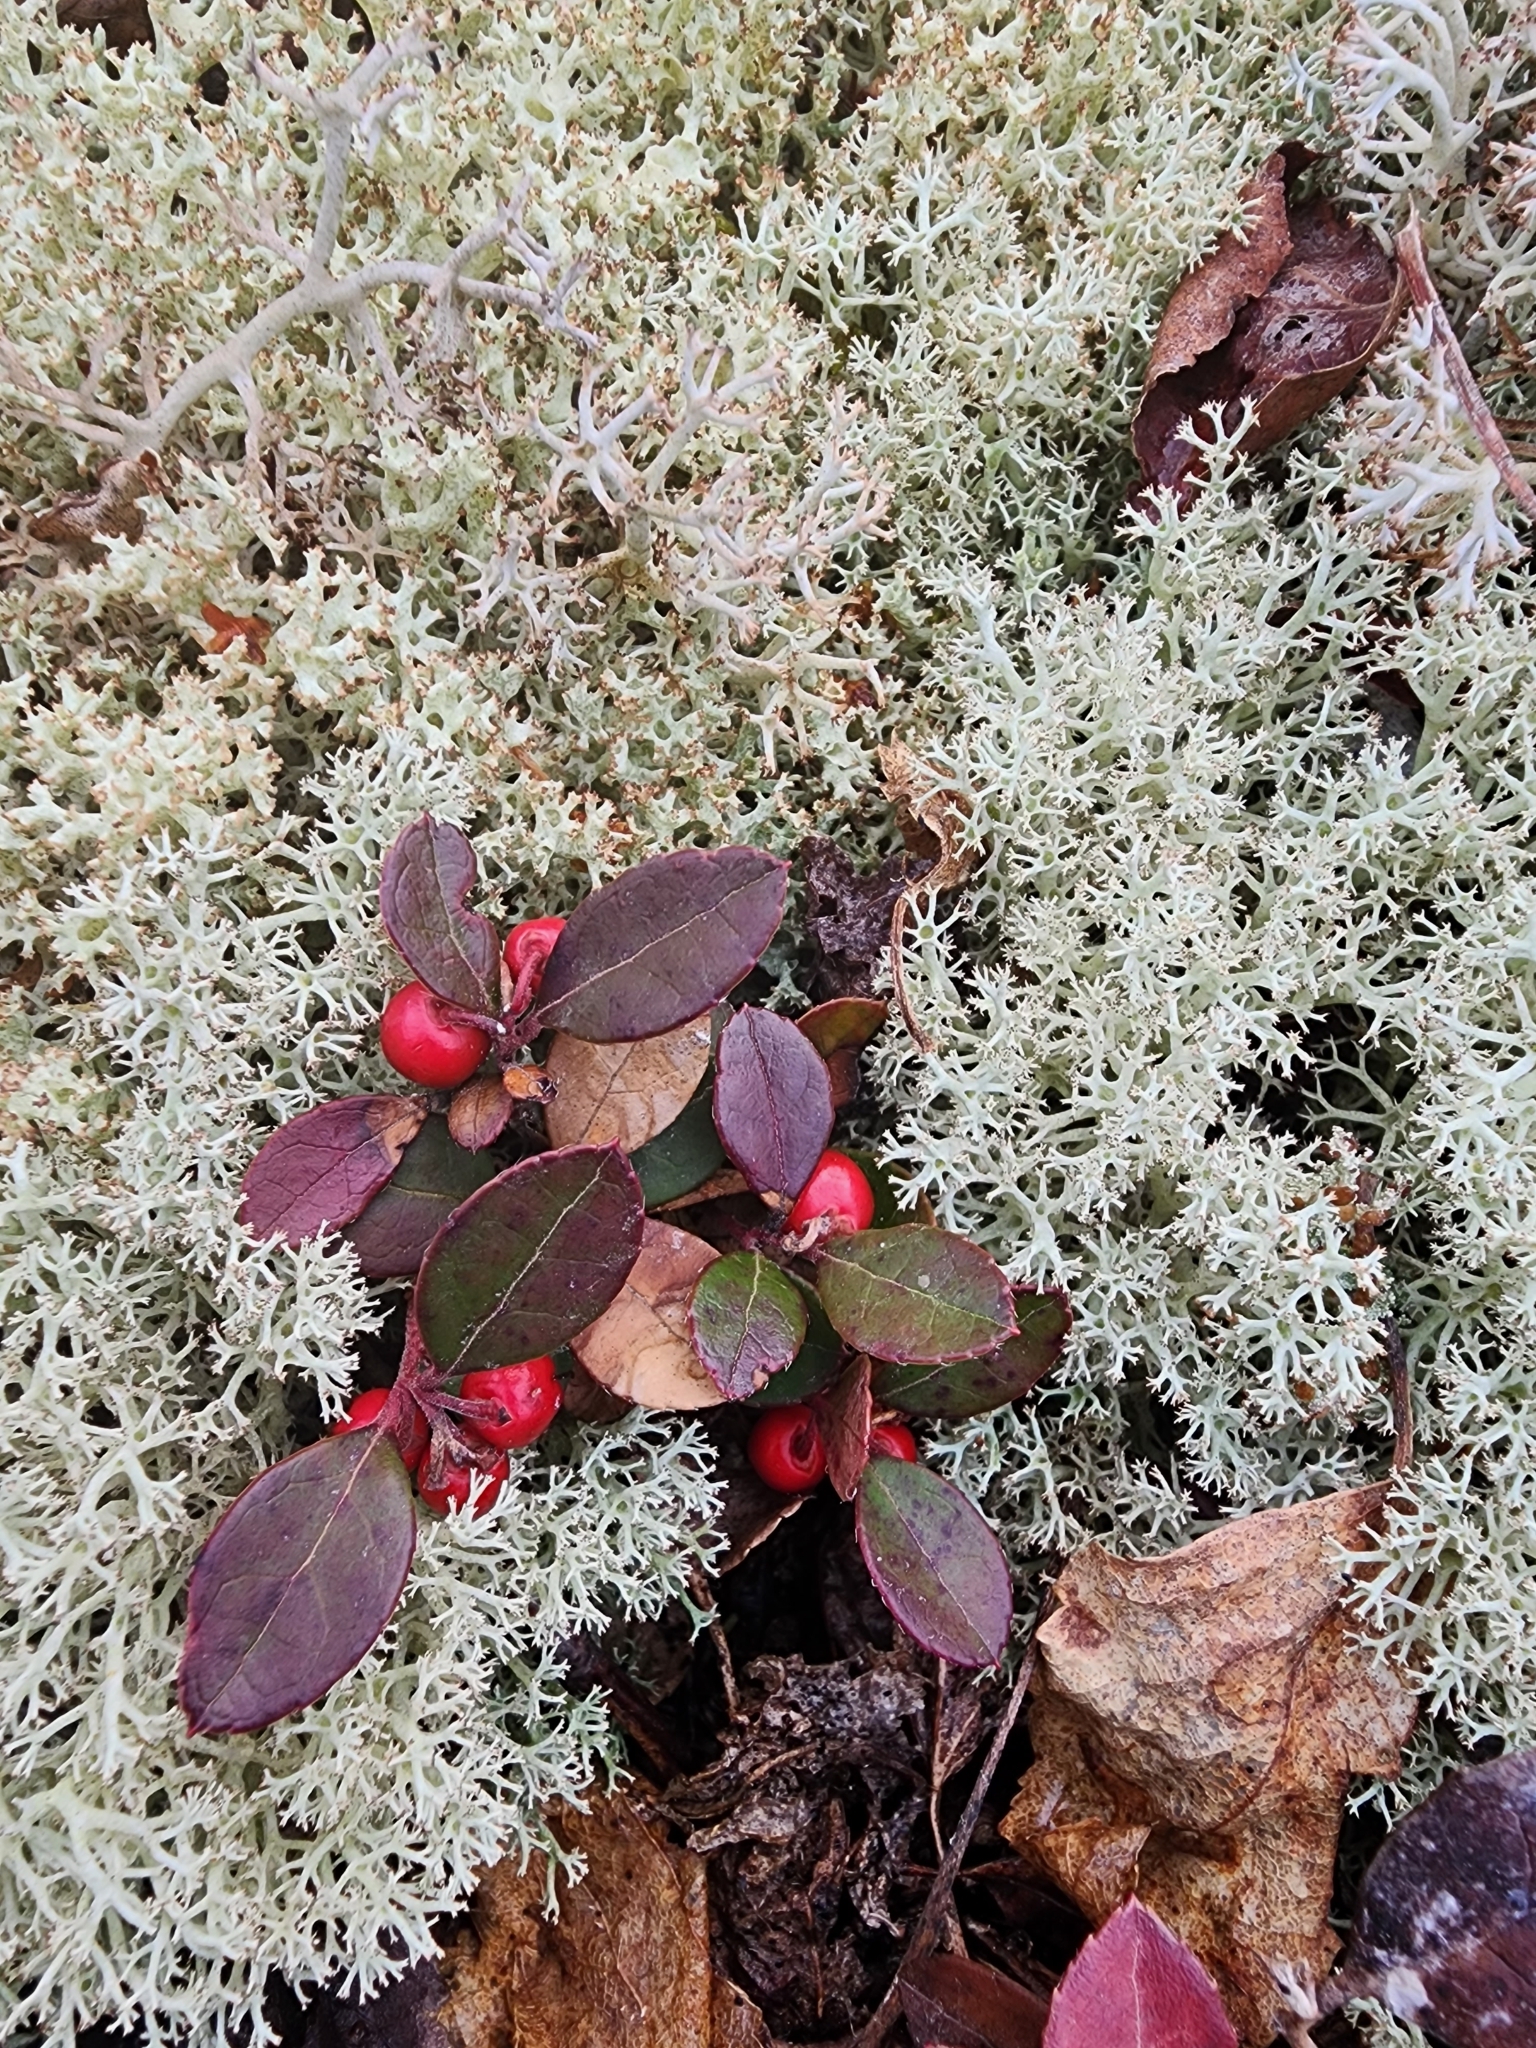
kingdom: Plantae
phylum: Tracheophyta
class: Magnoliopsida
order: Ericales
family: Ericaceae
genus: Gaultheria
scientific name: Gaultheria procumbens
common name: Checkerberry
